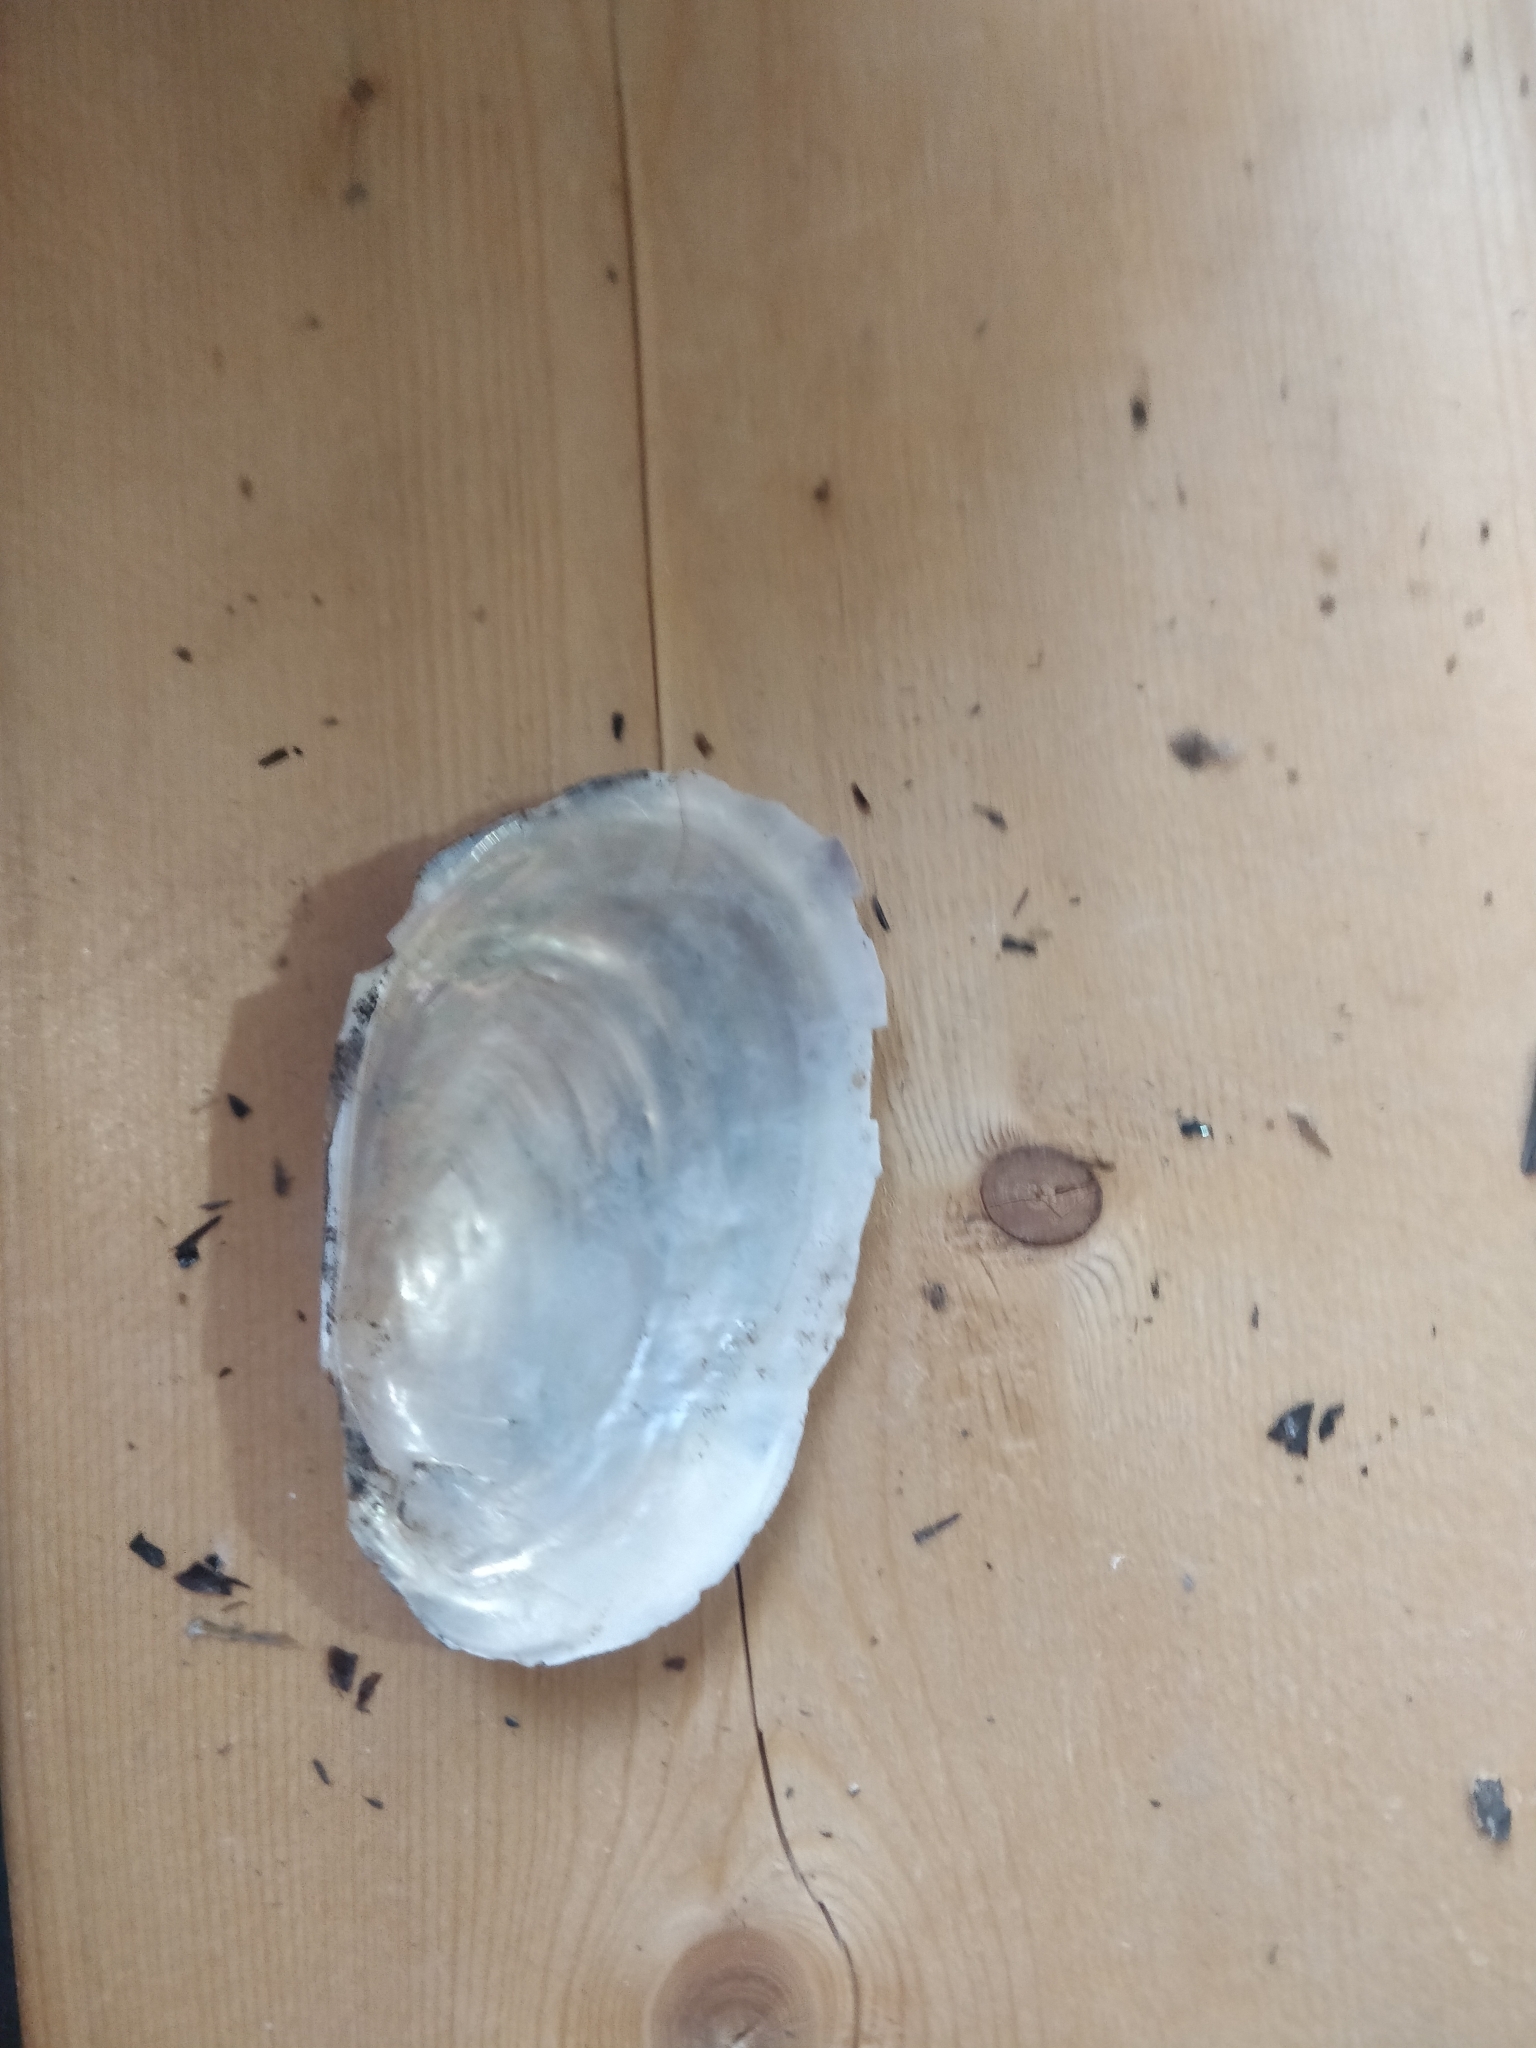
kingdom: Animalia
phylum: Mollusca
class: Bivalvia
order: Unionida
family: Unionidae
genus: Potamilus
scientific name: Potamilus fragilis
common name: Fragile papershell
